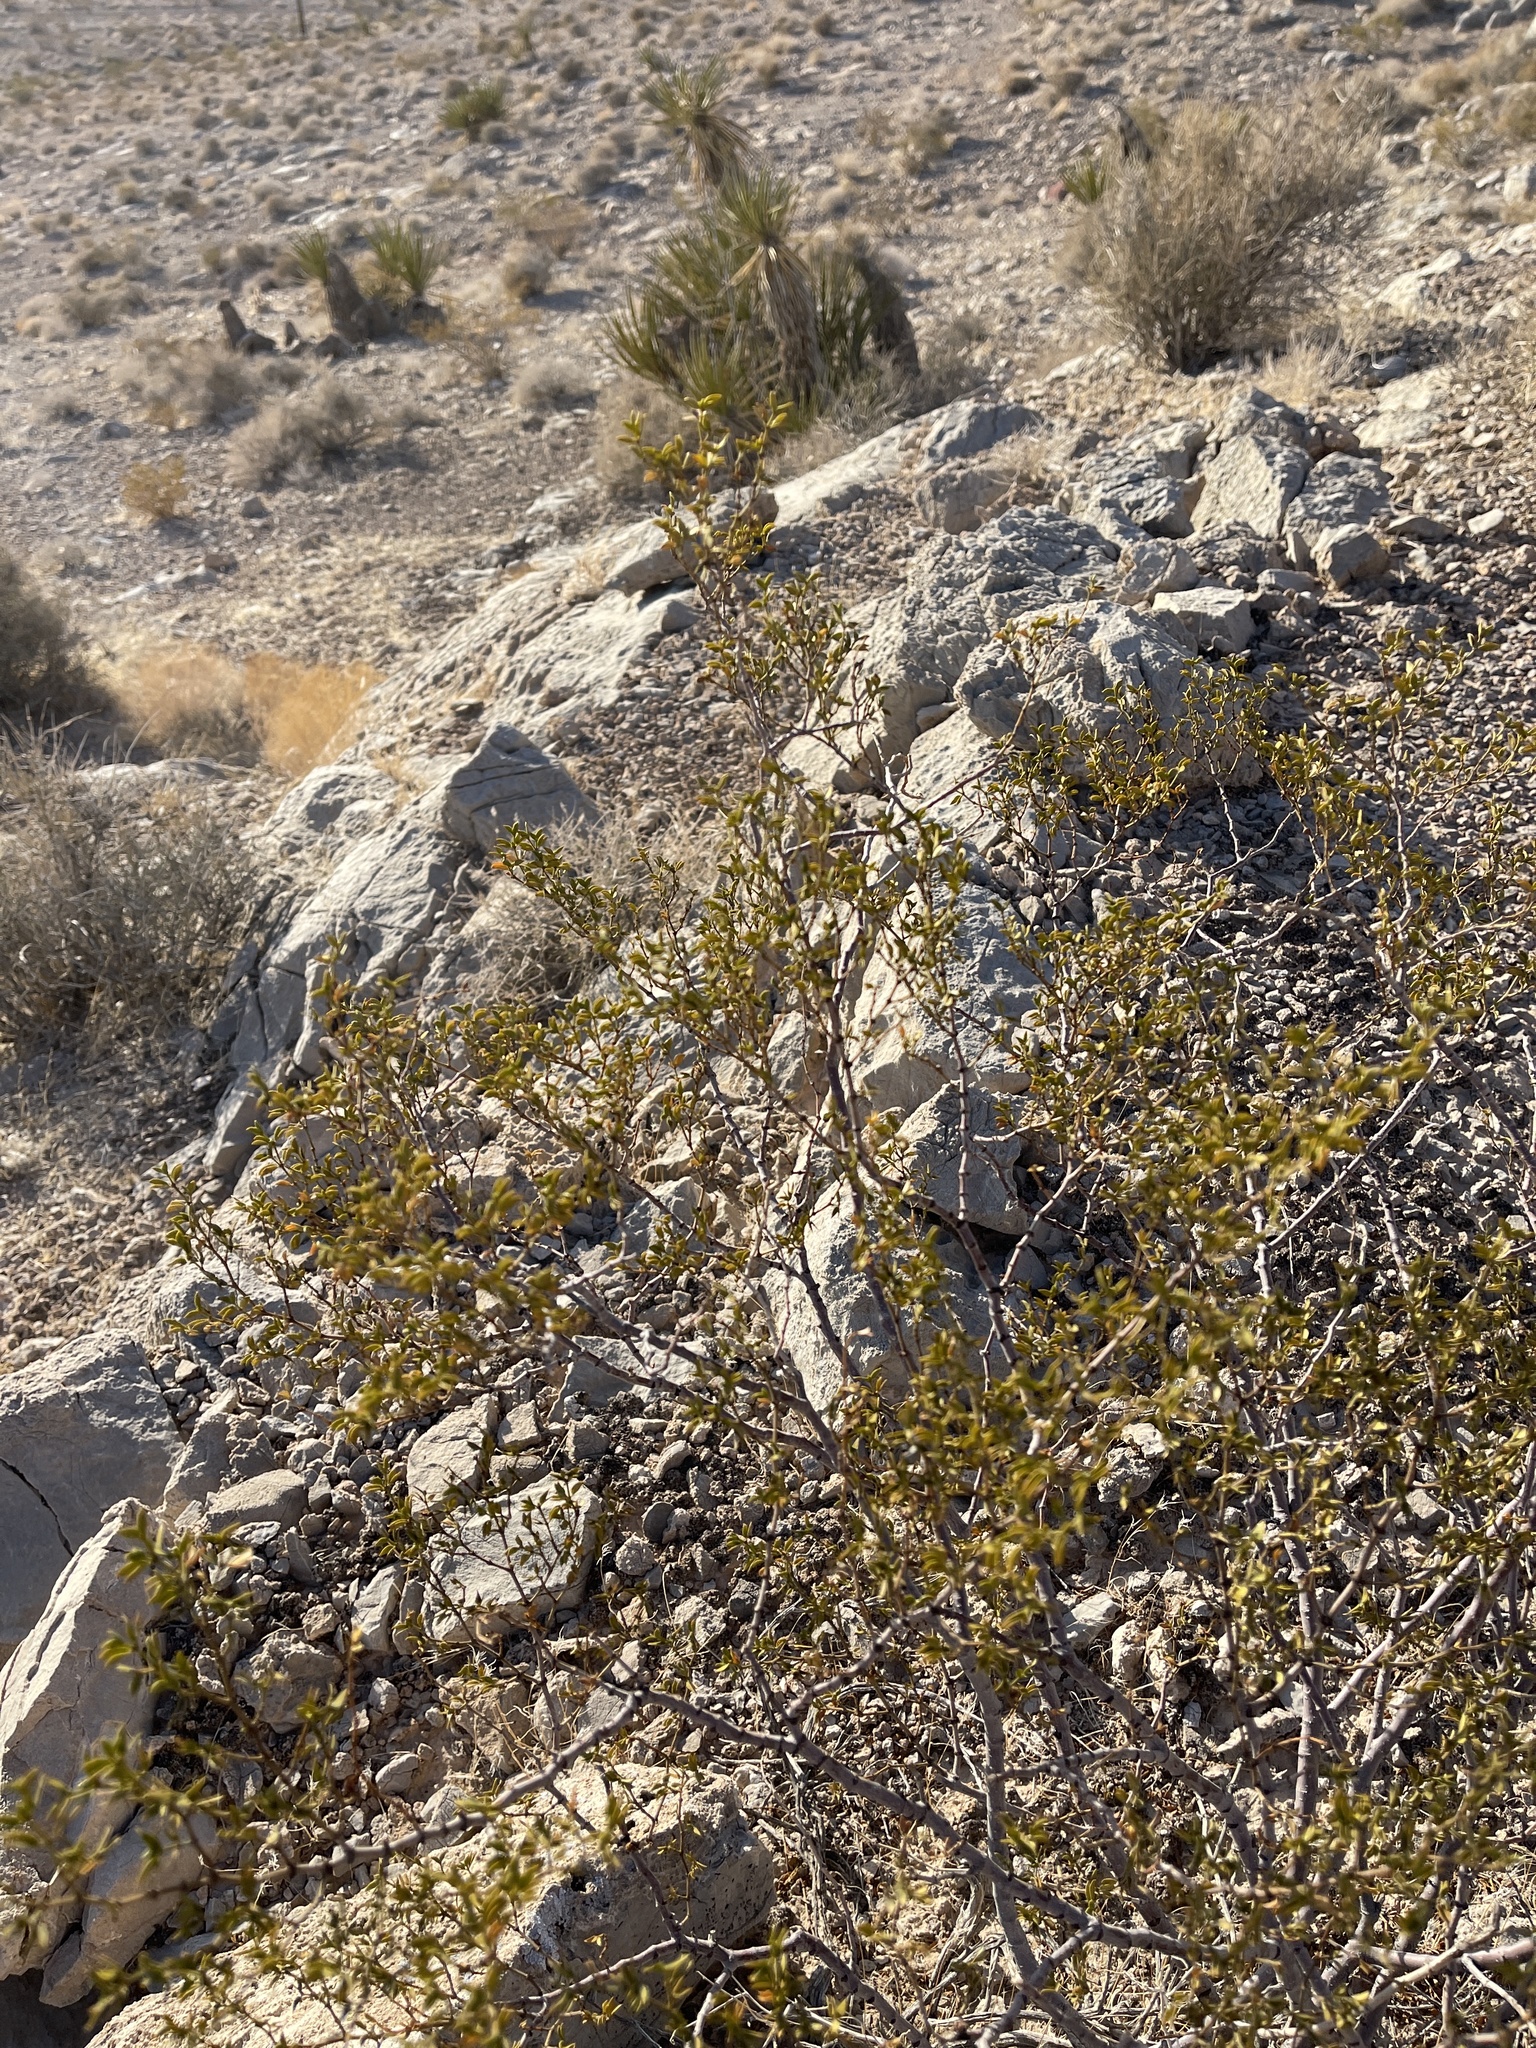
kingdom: Plantae
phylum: Tracheophyta
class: Magnoliopsida
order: Zygophyllales
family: Zygophyllaceae
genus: Larrea
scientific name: Larrea tridentata
